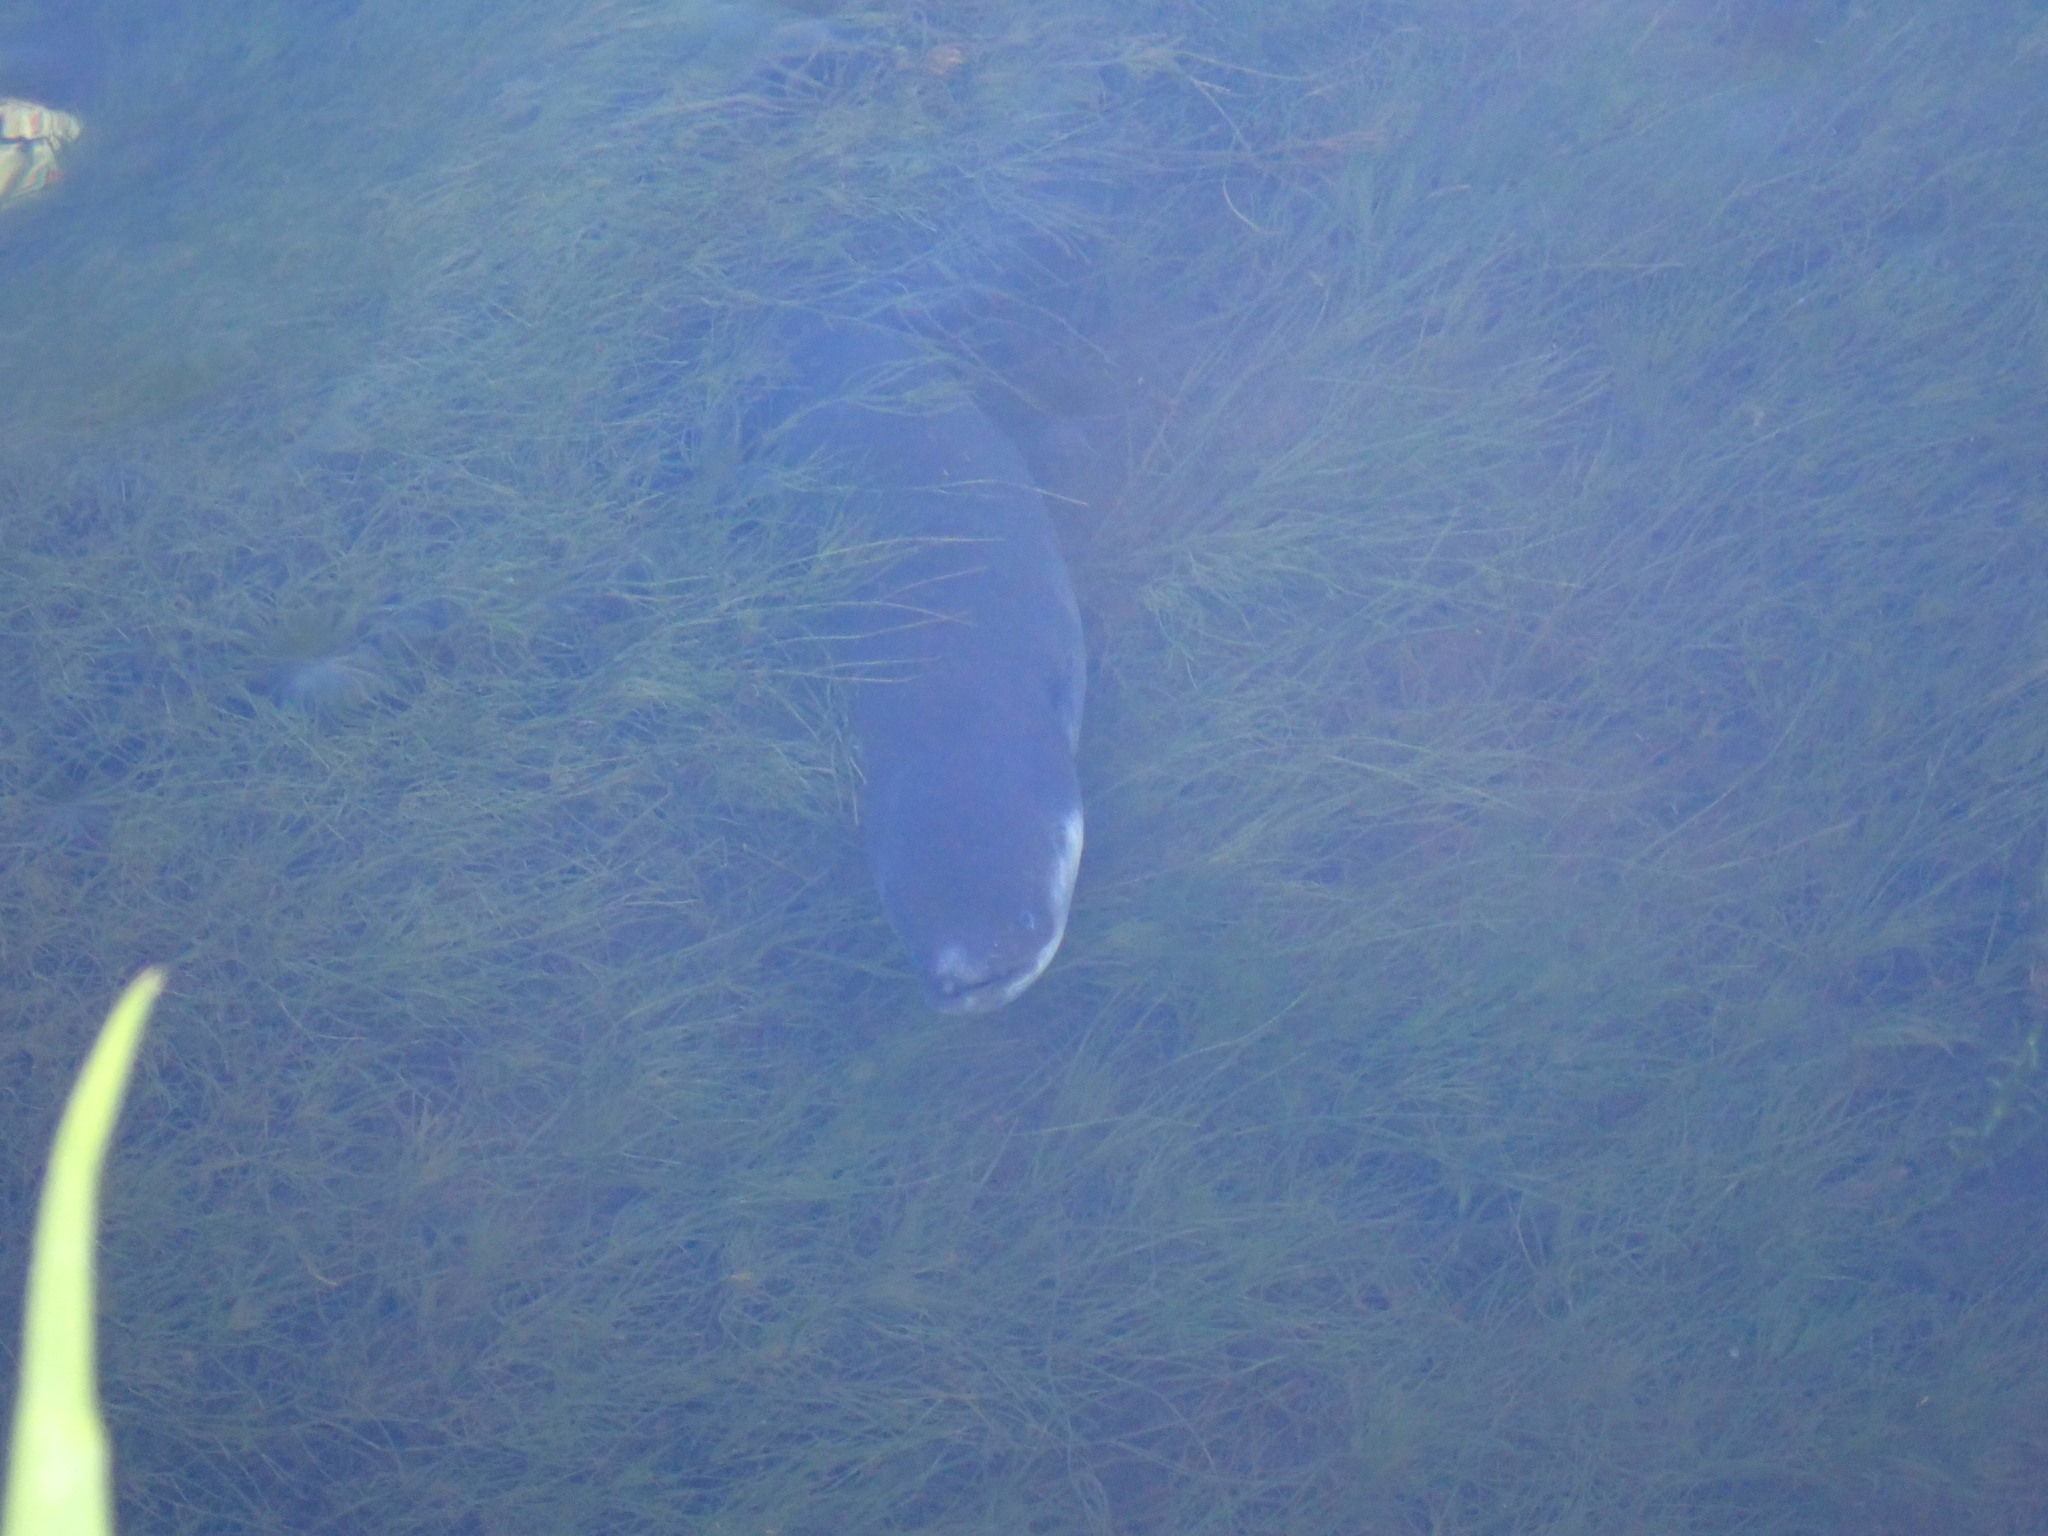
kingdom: Animalia
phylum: Chordata
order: Anguilliformes
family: Anguillidae
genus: Anguilla
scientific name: Anguilla dieffenbachii
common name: New zealand longfin eel
